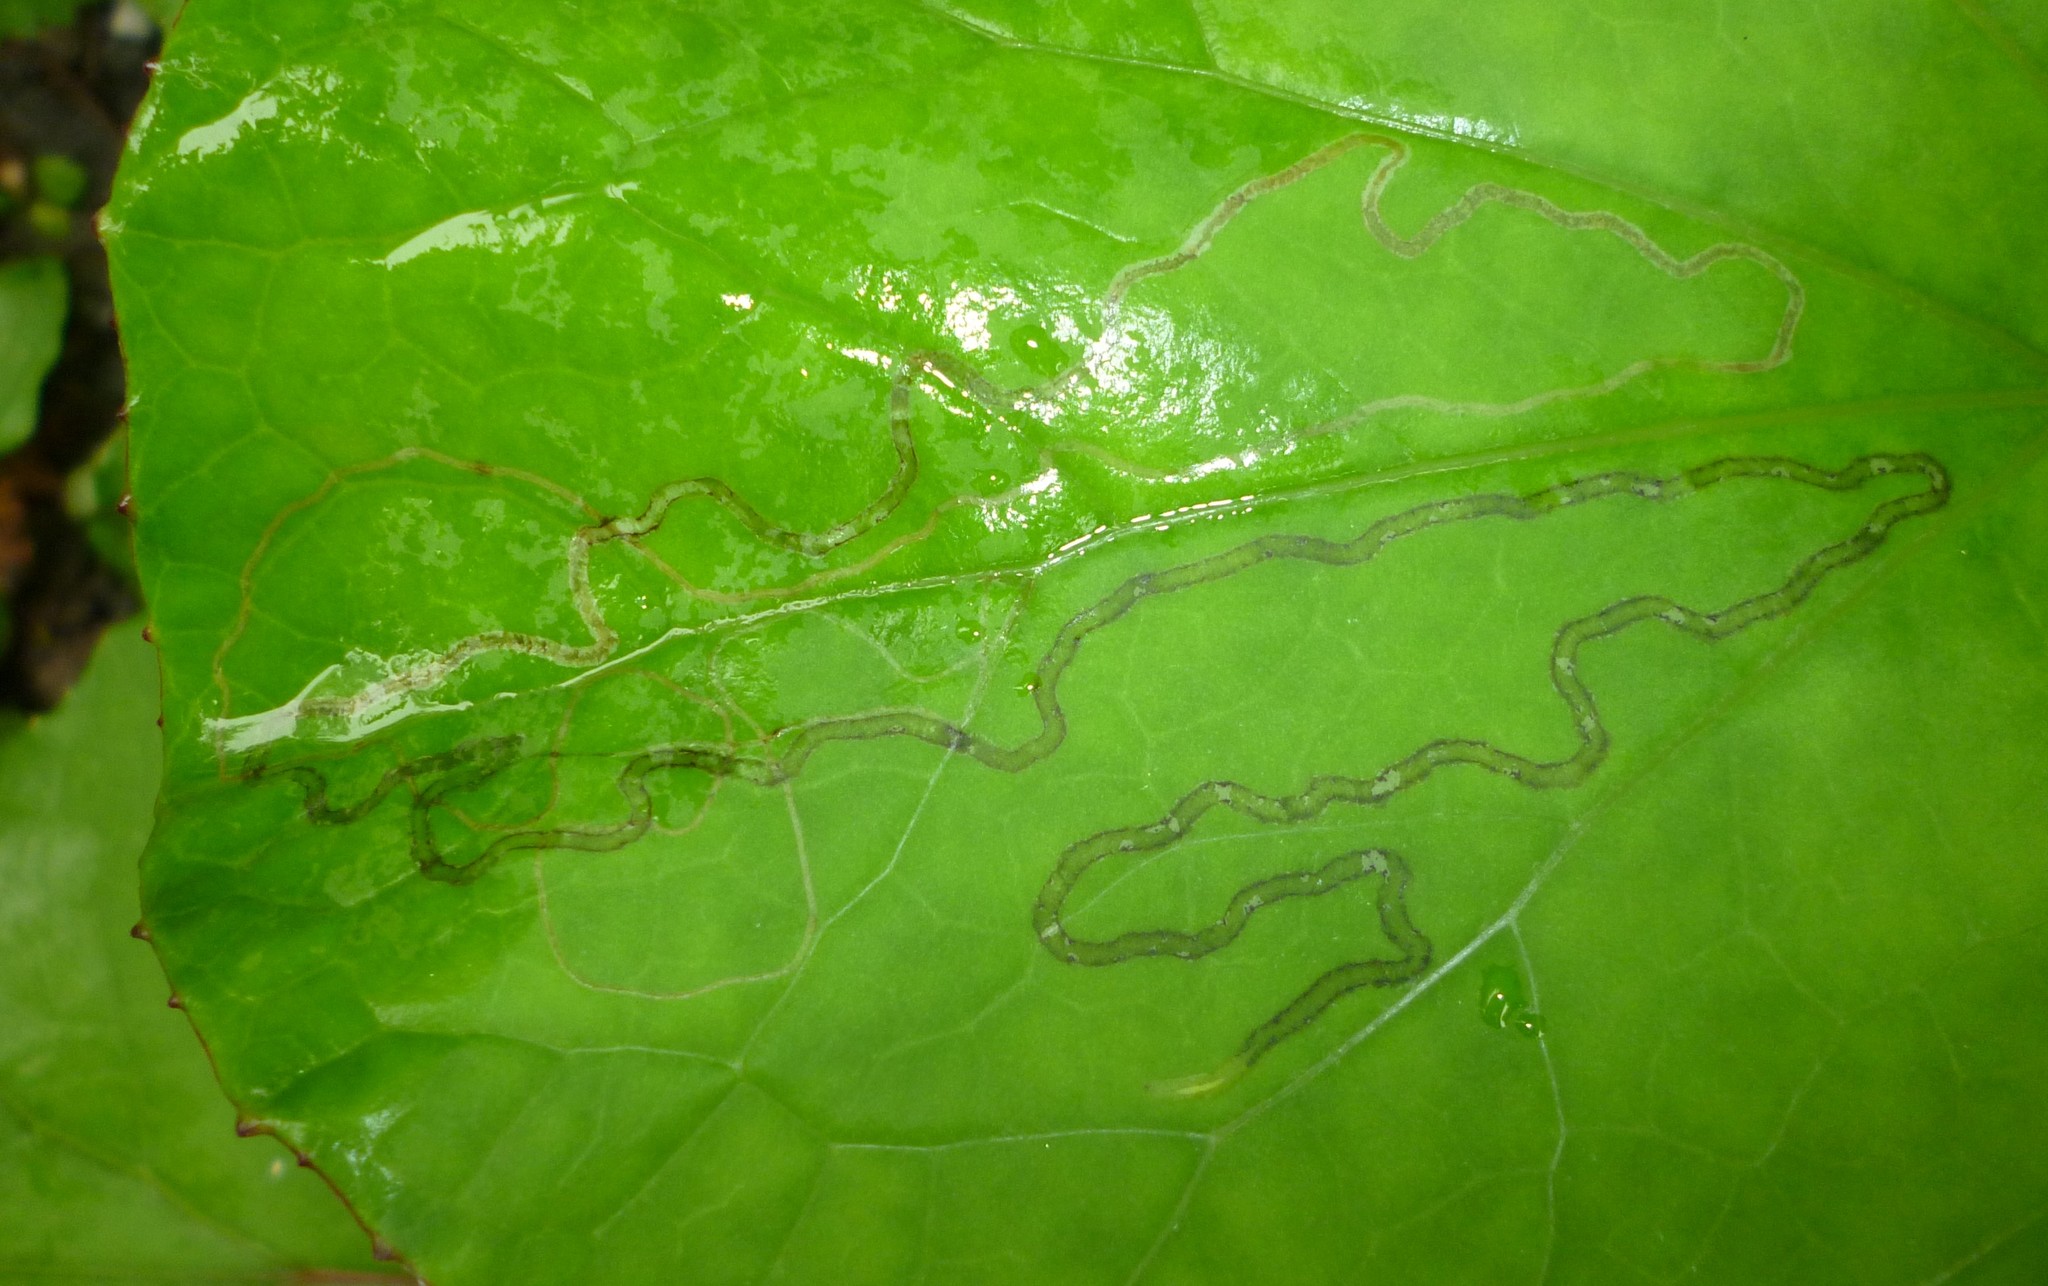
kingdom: Animalia
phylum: Arthropoda
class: Insecta
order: Lepidoptera
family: Gracillariidae
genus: Phyllocnistis
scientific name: Phyllocnistis insignis
